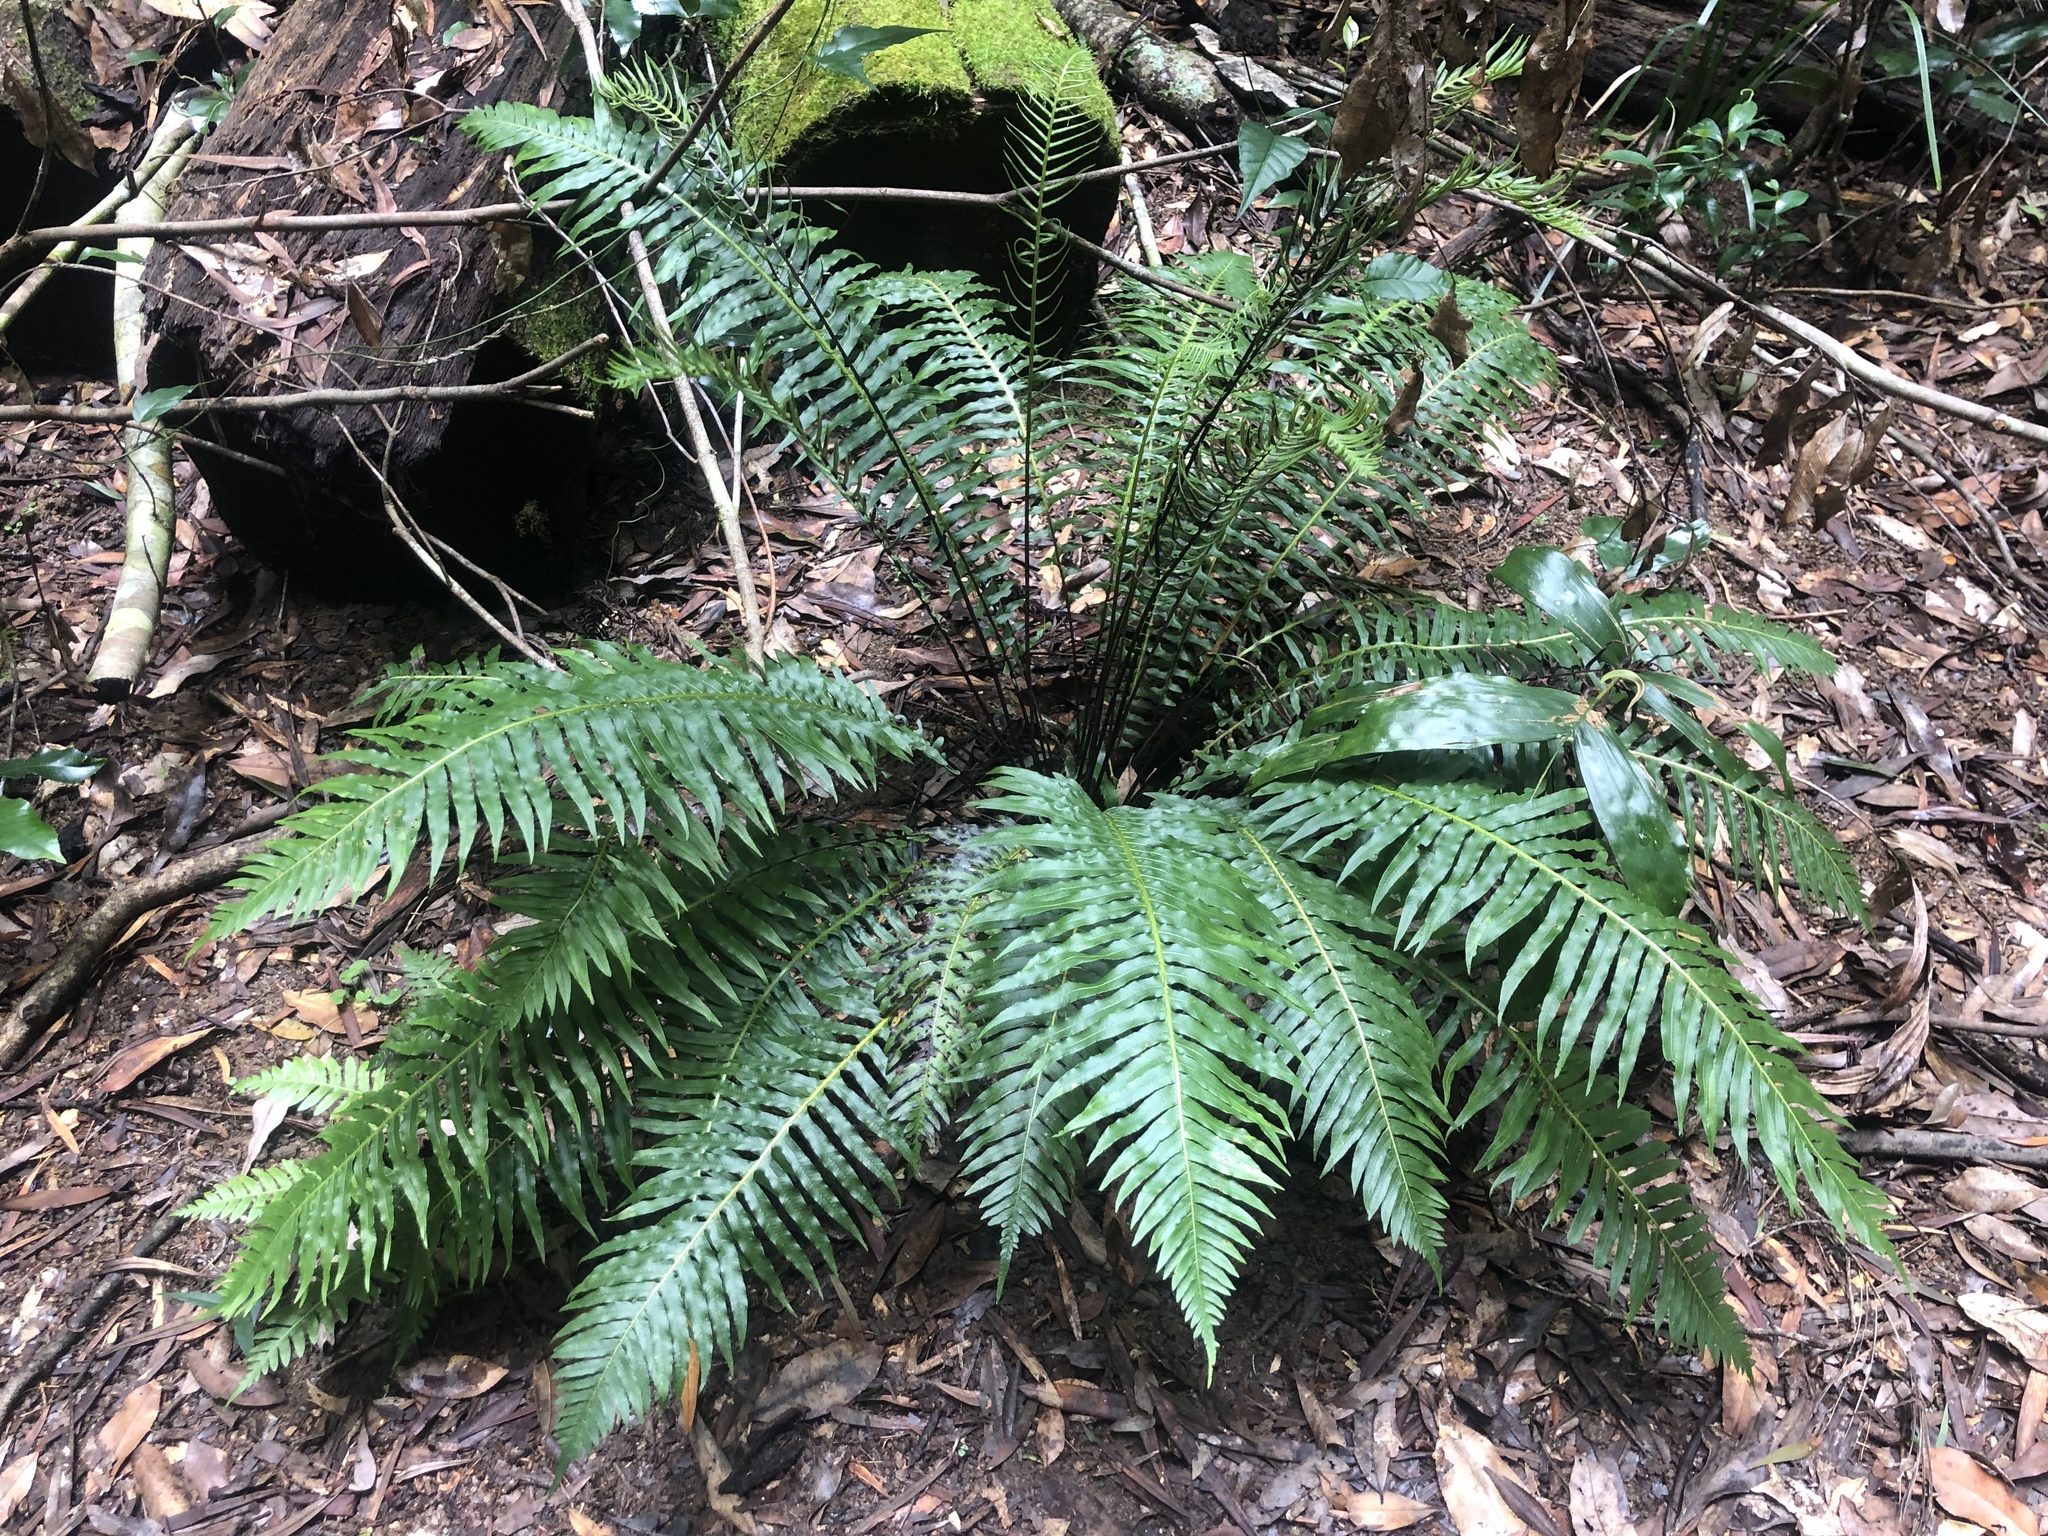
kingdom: Plantae
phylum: Tracheophyta
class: Polypodiopsida
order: Polypodiales
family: Blechnaceae
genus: Lomaria
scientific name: Lomaria nuda
